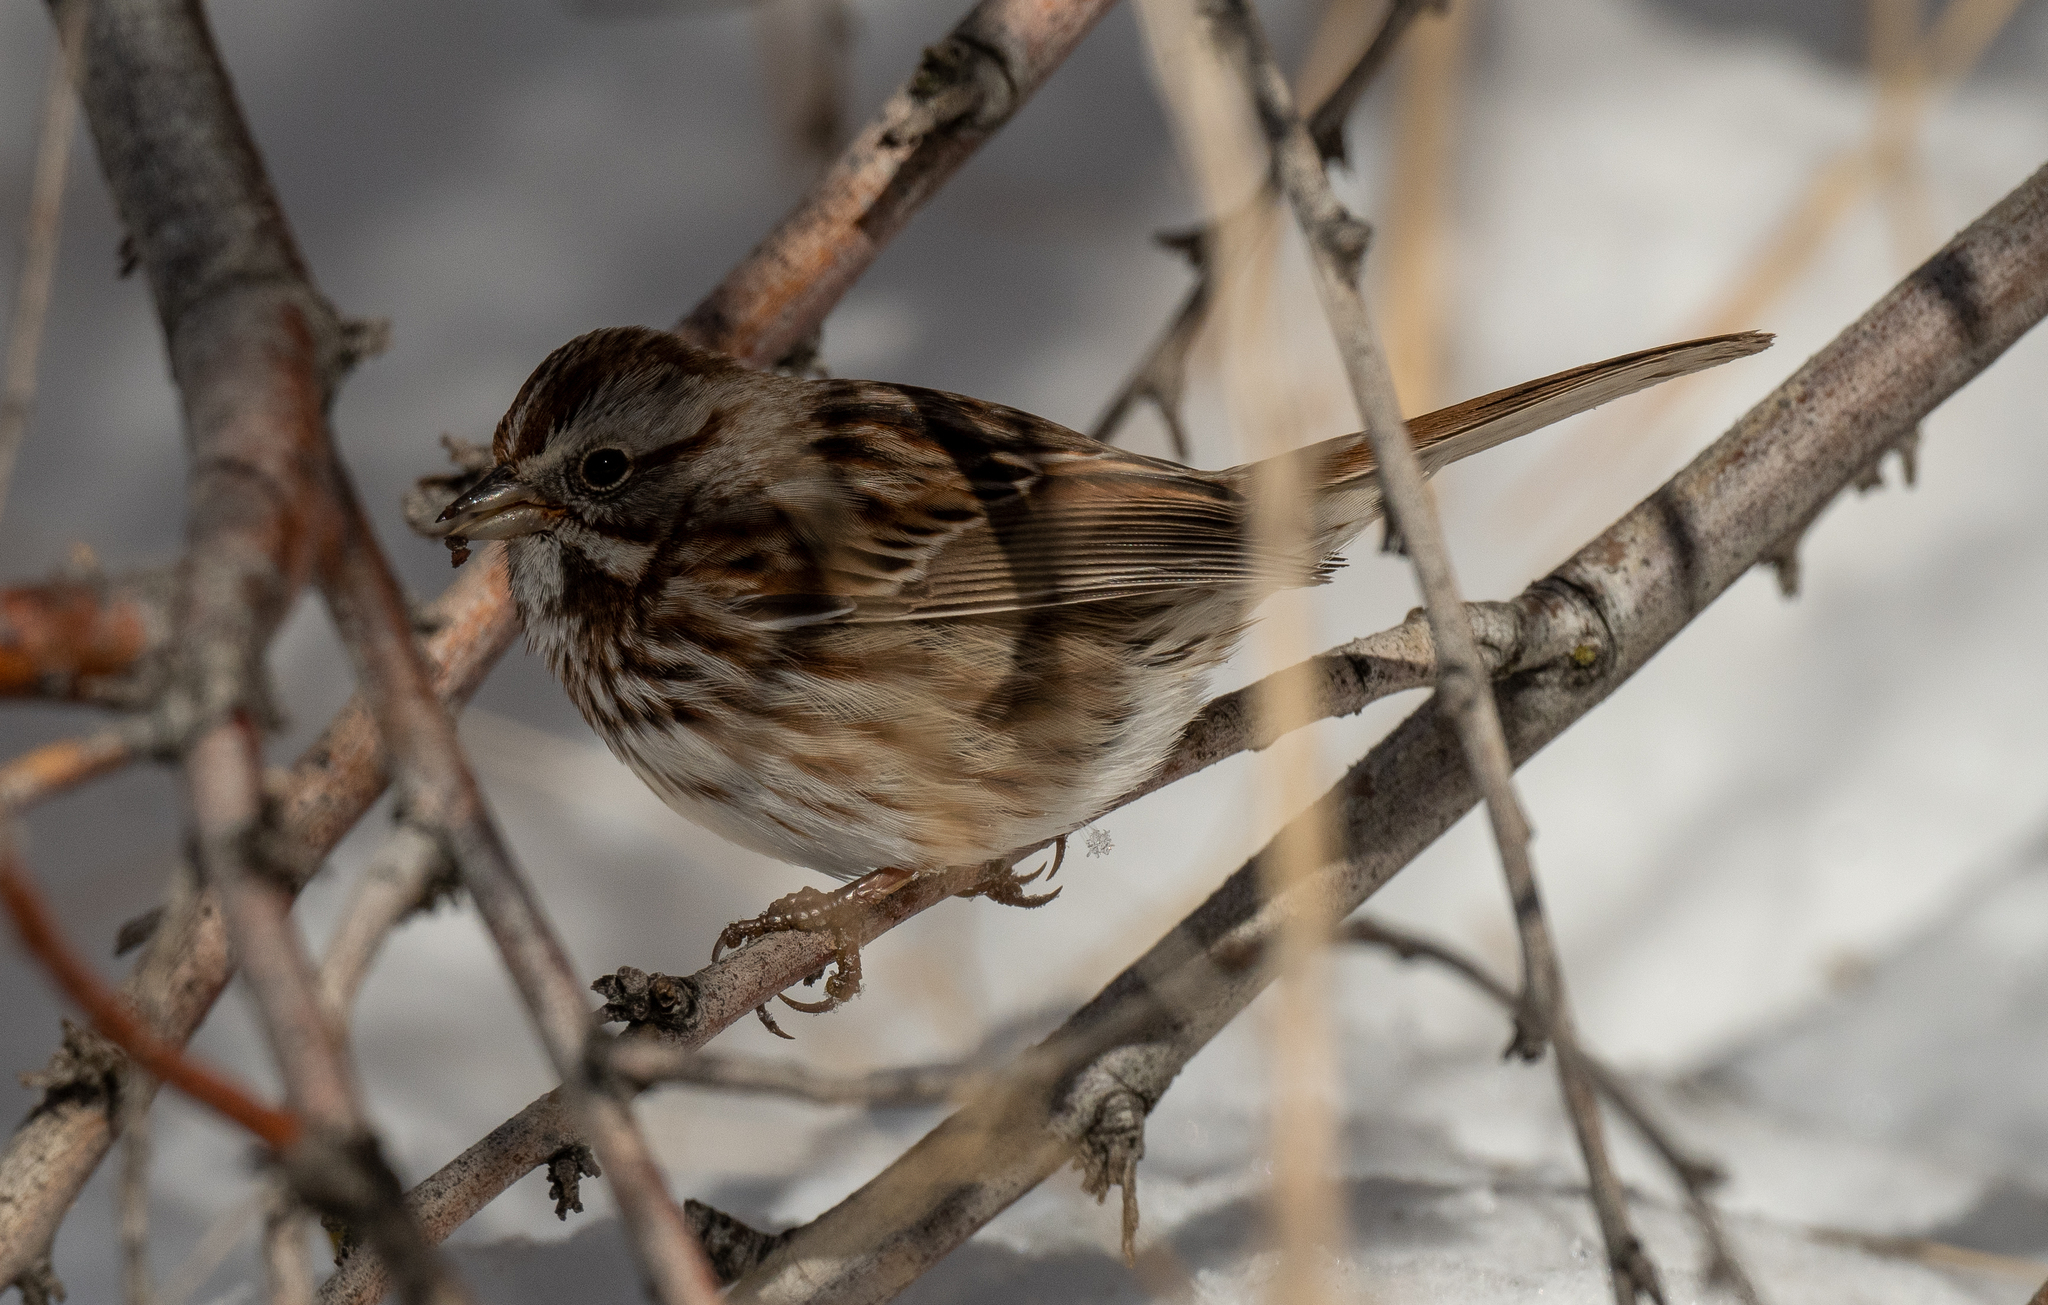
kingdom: Animalia
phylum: Chordata
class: Aves
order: Passeriformes
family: Passerellidae
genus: Melospiza
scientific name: Melospiza melodia
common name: Song sparrow
